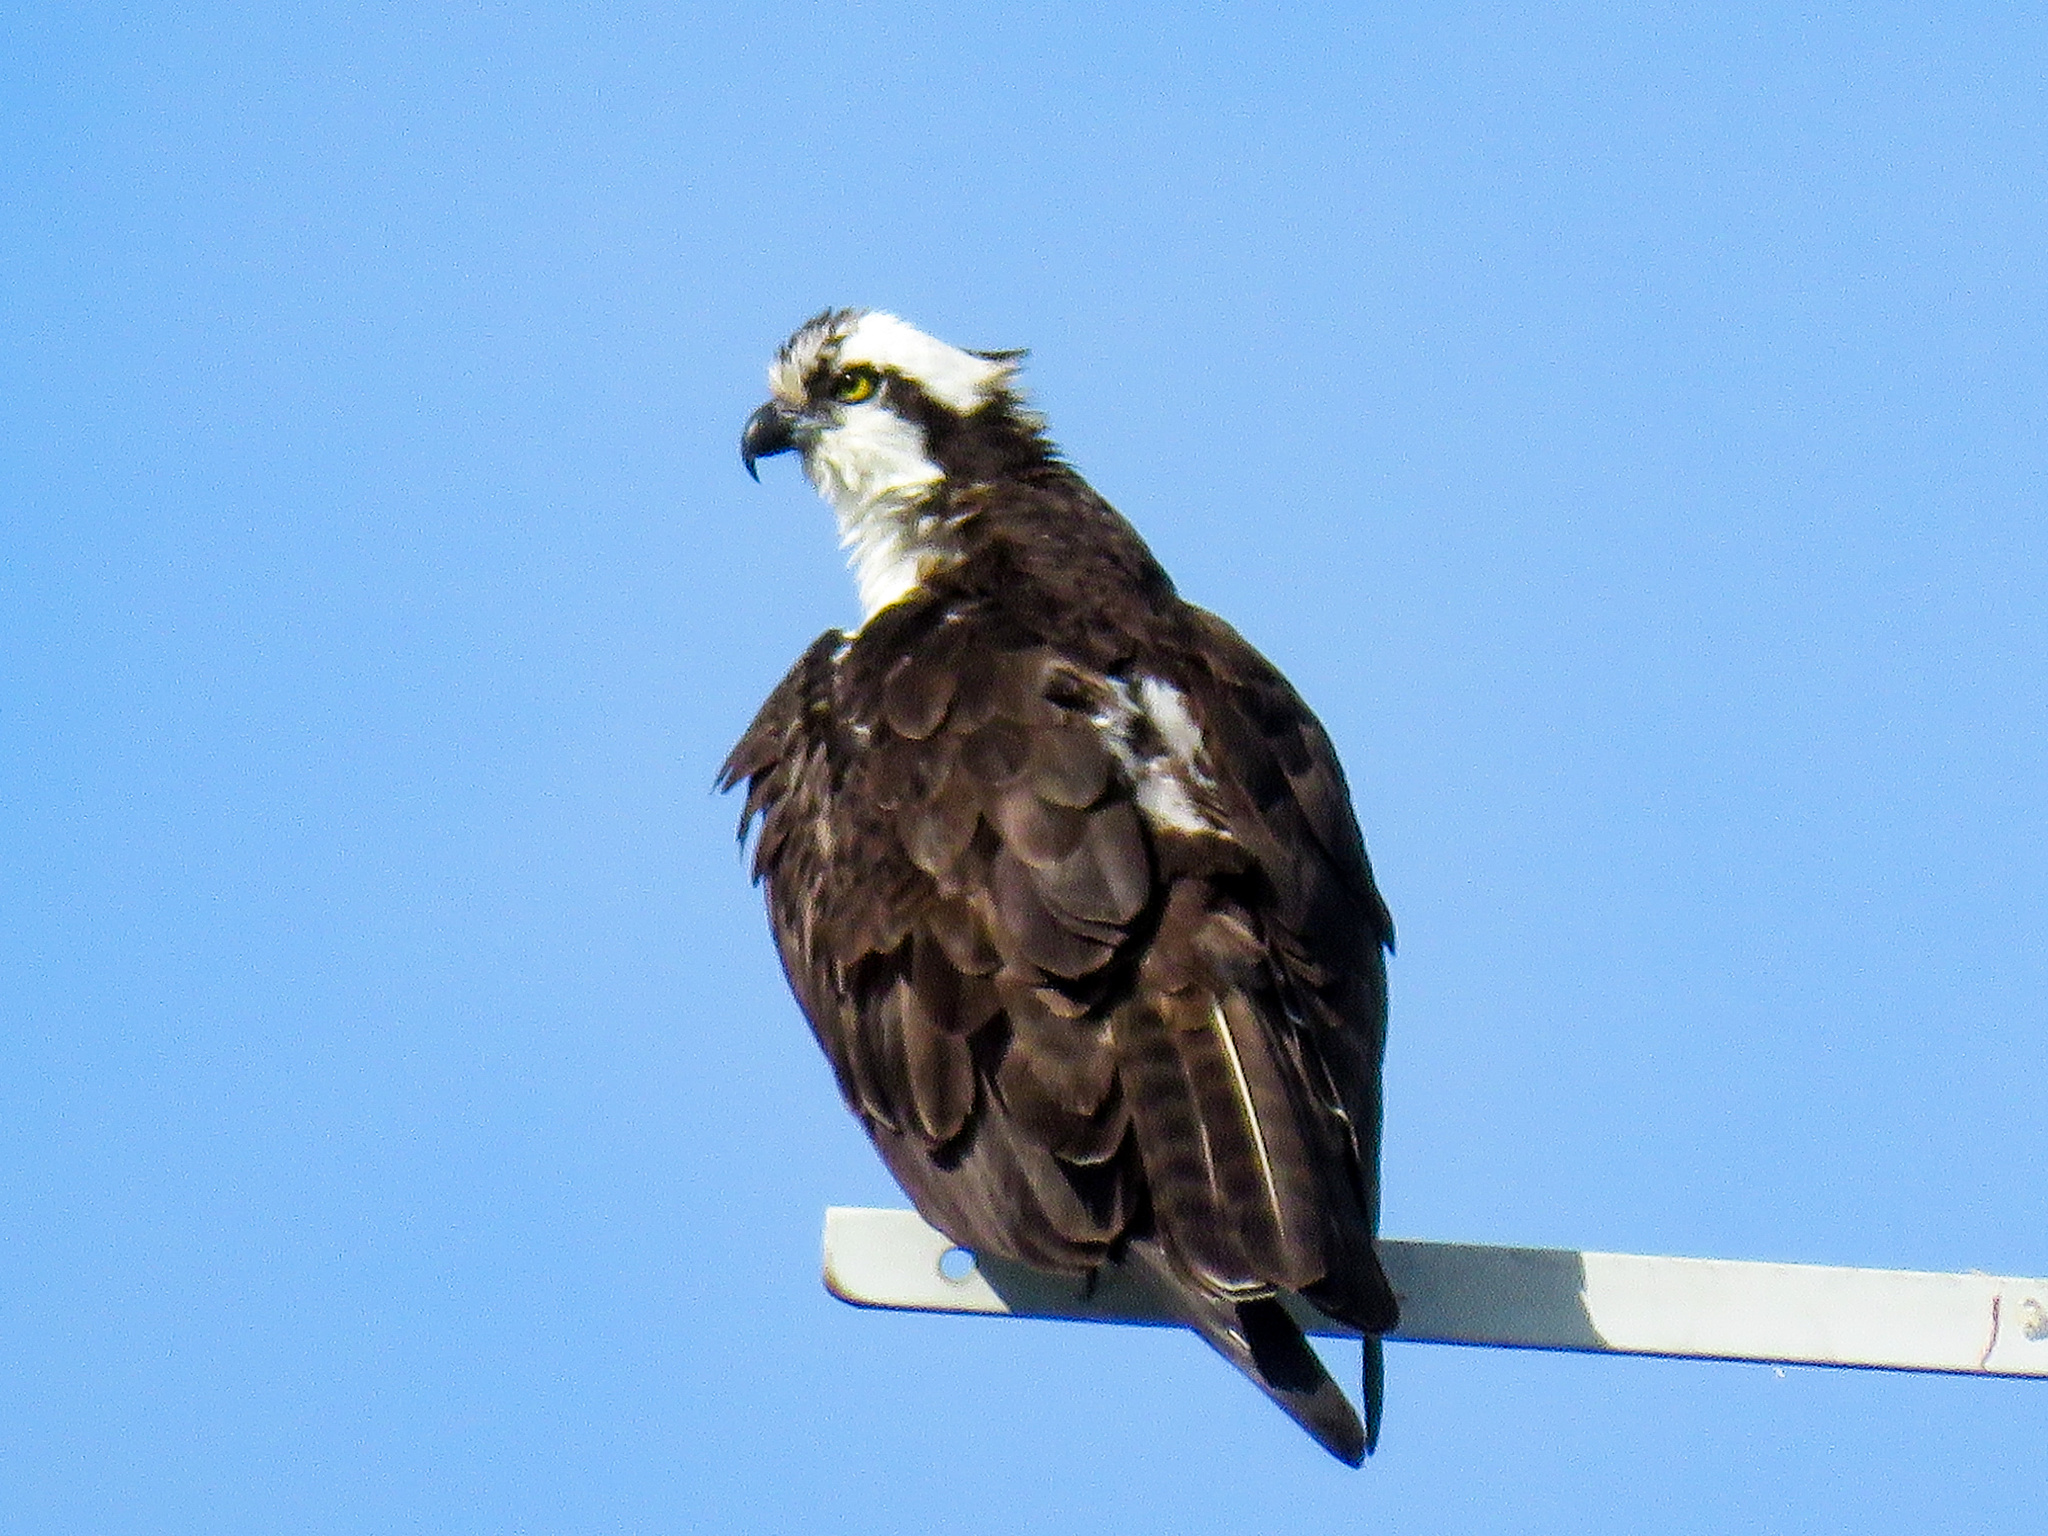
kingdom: Animalia
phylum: Chordata
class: Aves
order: Accipitriformes
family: Pandionidae
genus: Pandion
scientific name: Pandion haliaetus
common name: Osprey
